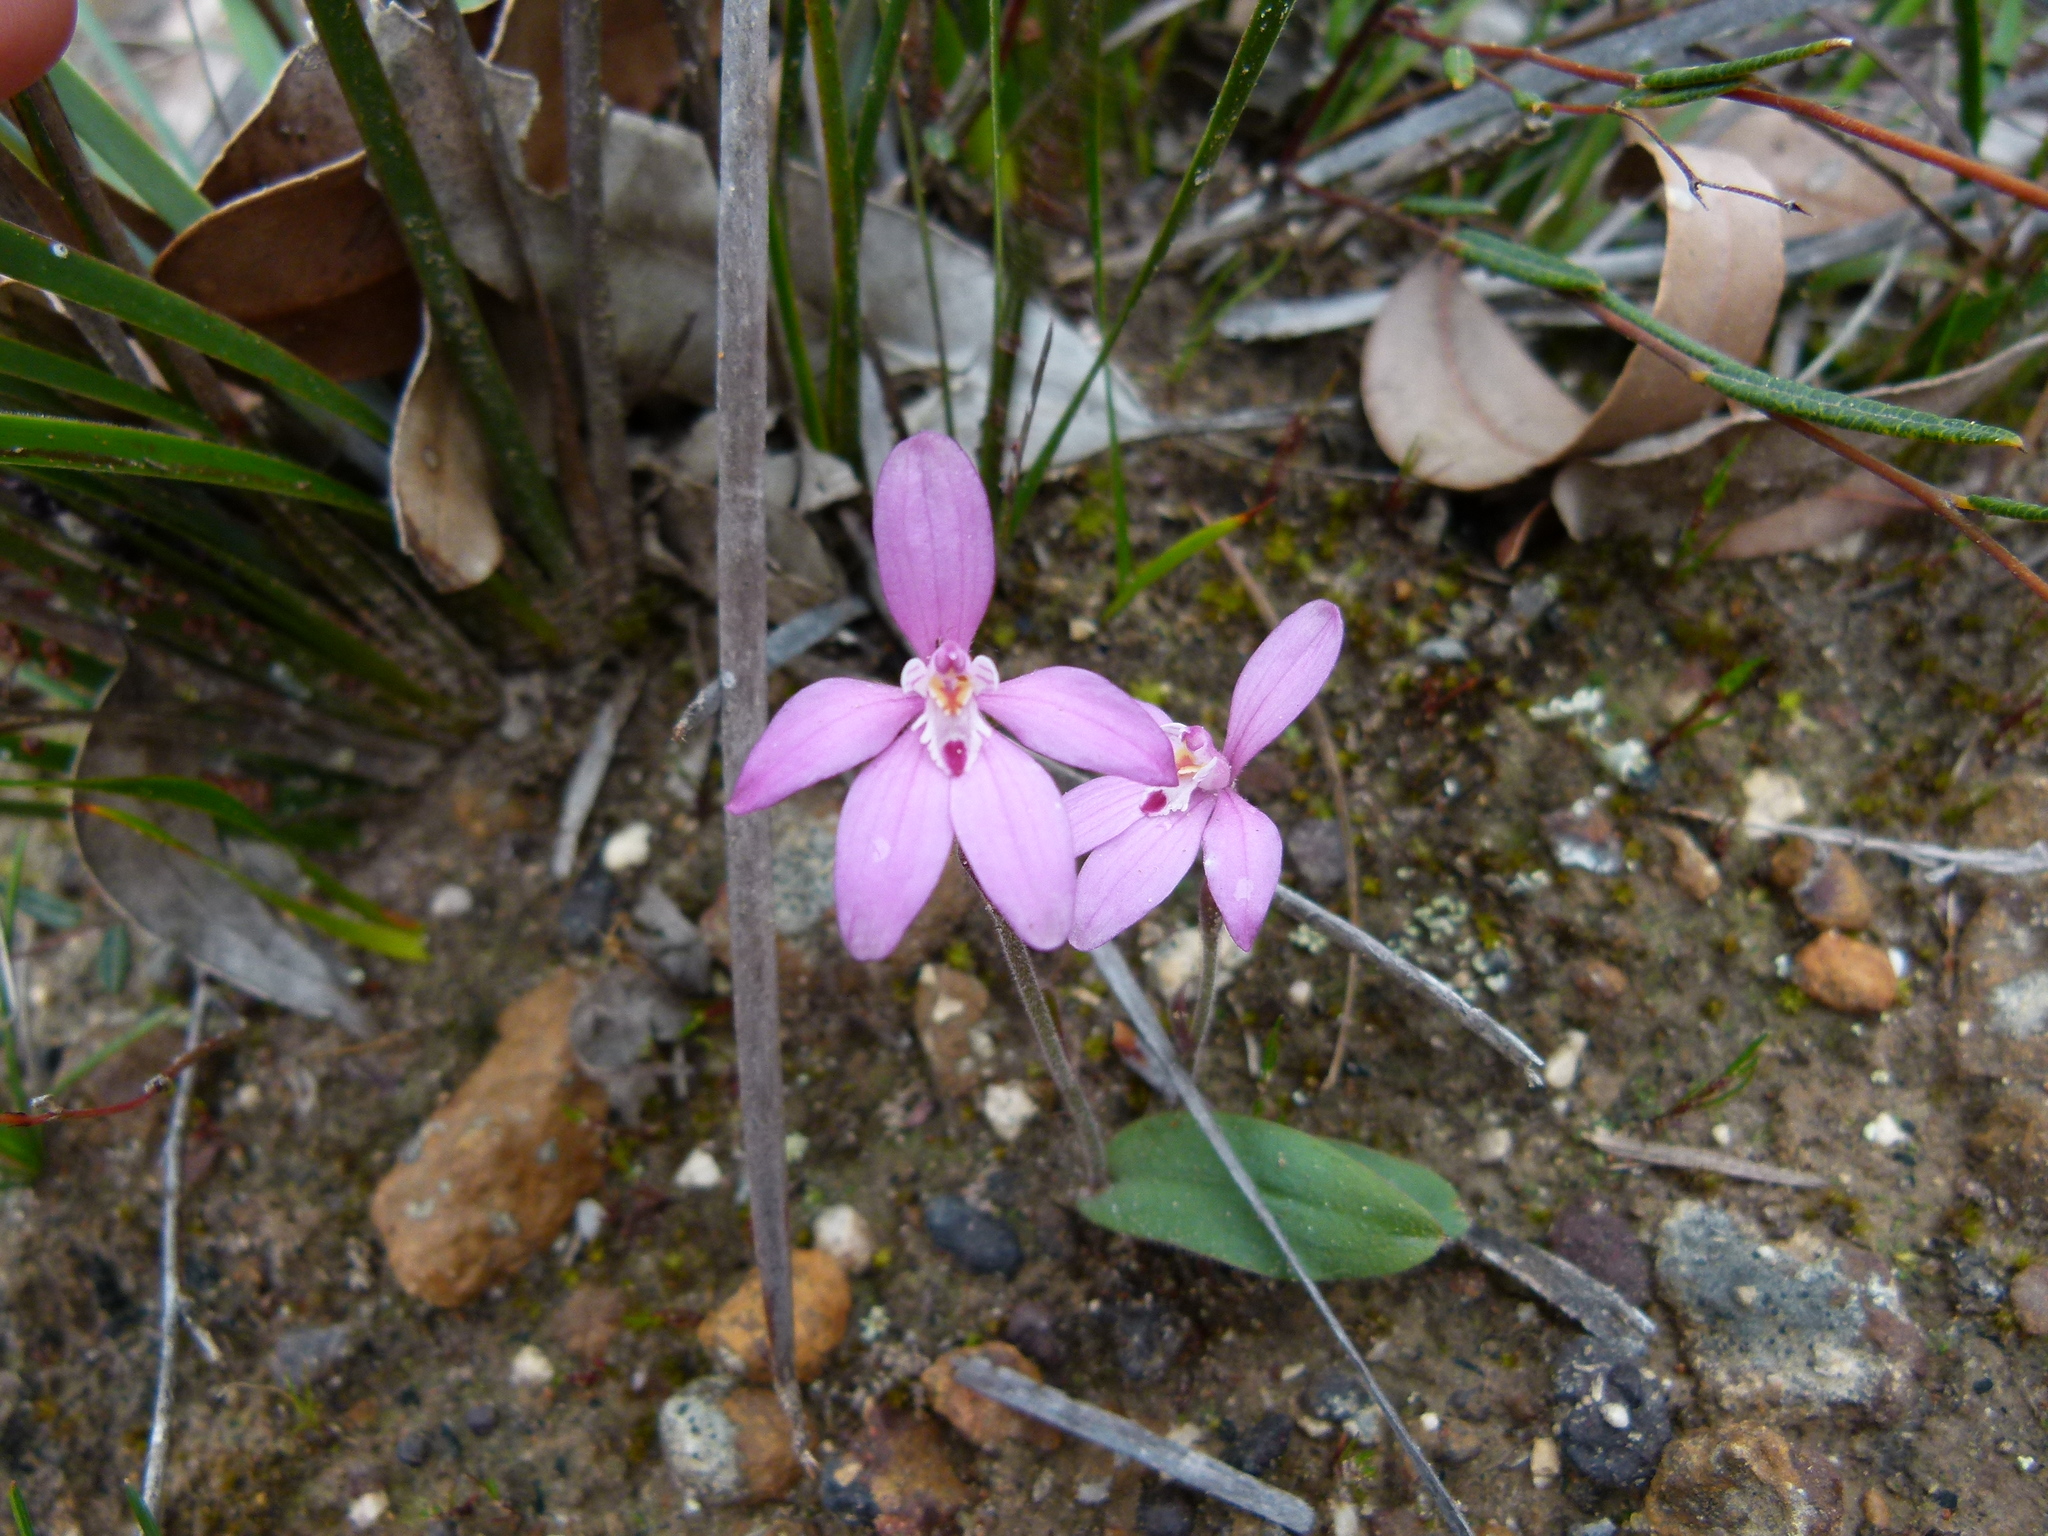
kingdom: Plantae
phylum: Tracheophyta
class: Liliopsida
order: Asparagales
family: Orchidaceae
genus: Caladenia
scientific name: Caladenia reptans
